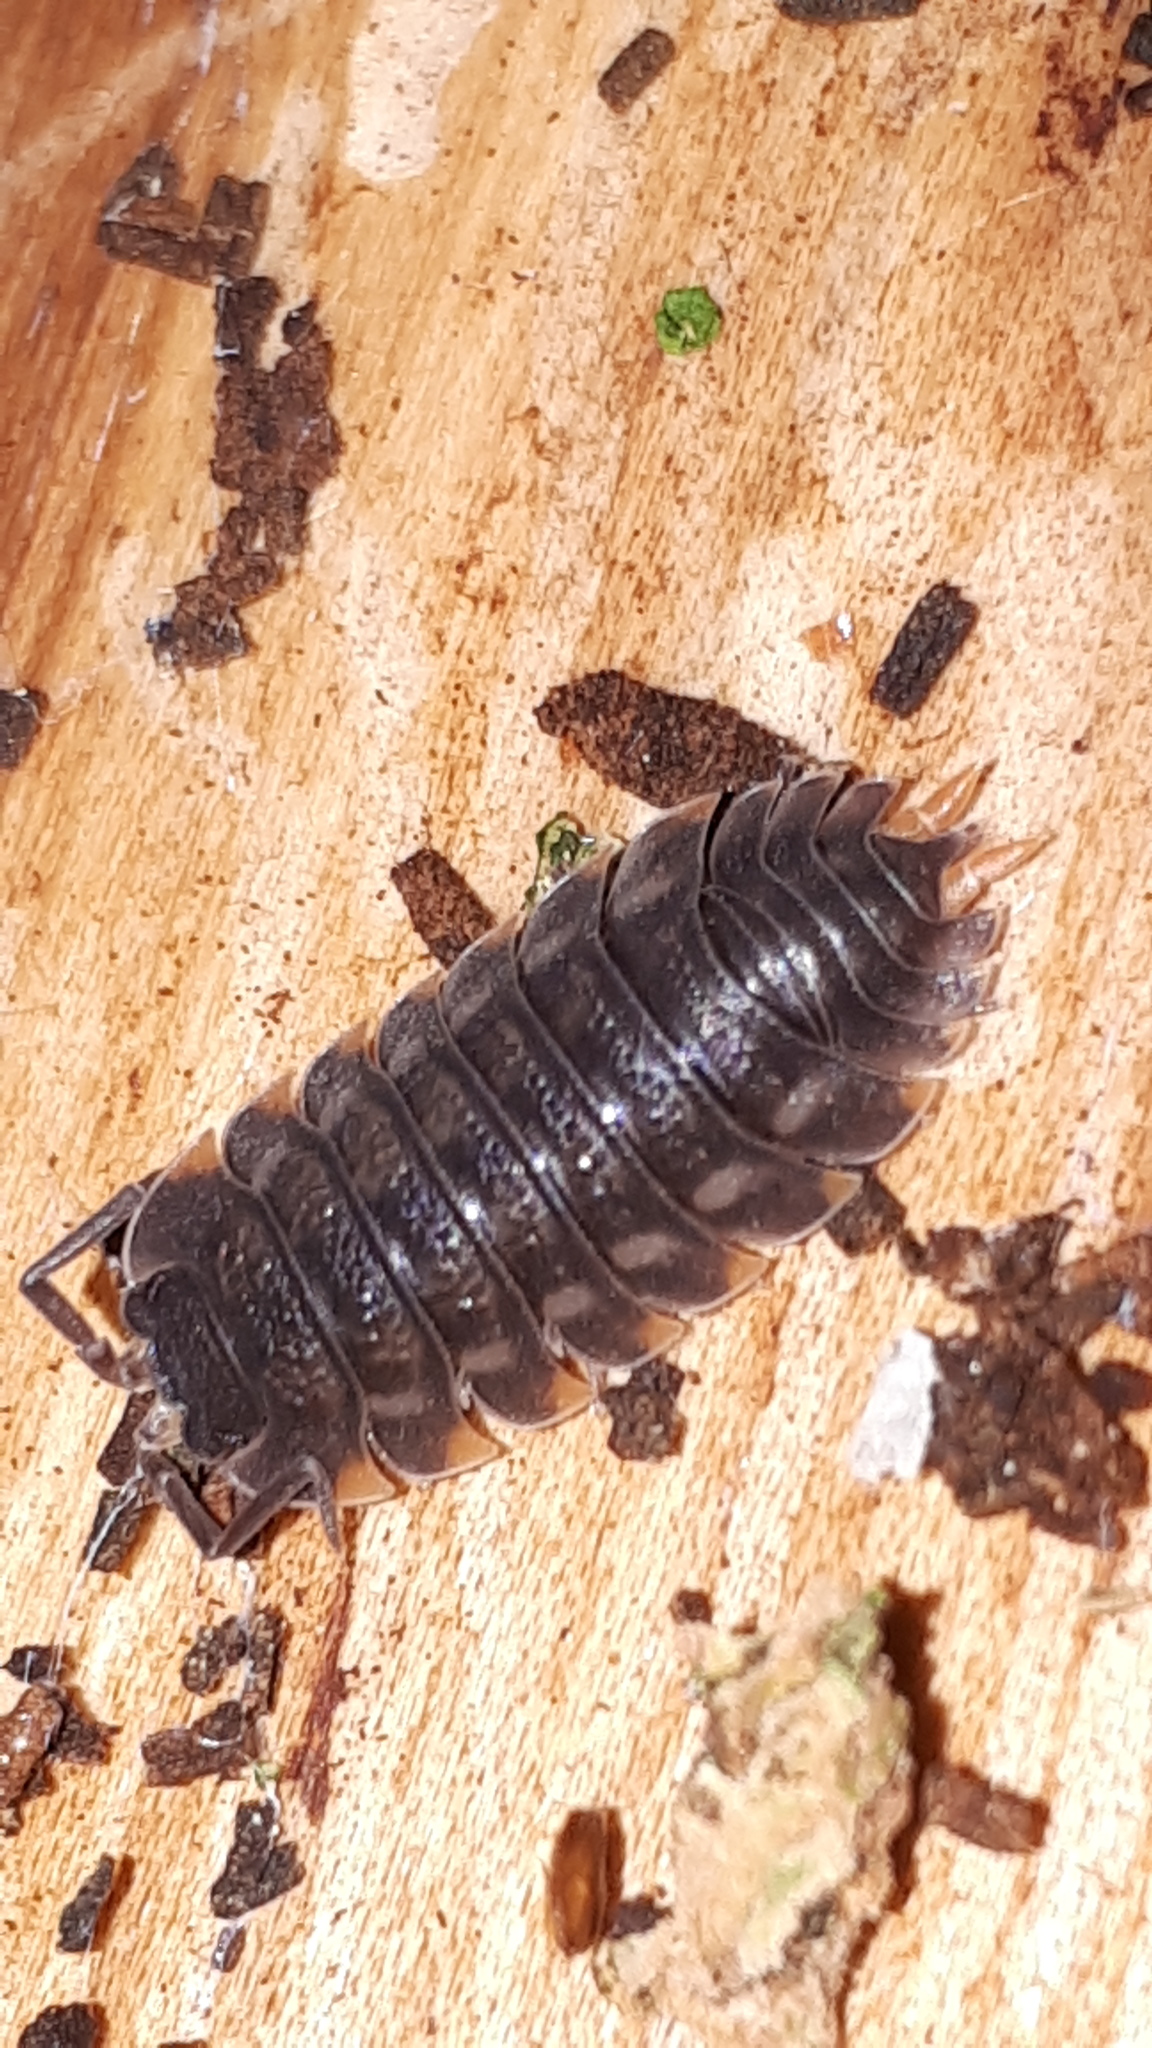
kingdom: Animalia
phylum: Arthropoda
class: Malacostraca
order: Isopoda
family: Trachelipodidae
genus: Trachelipus
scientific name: Trachelipus ratzeburgii
